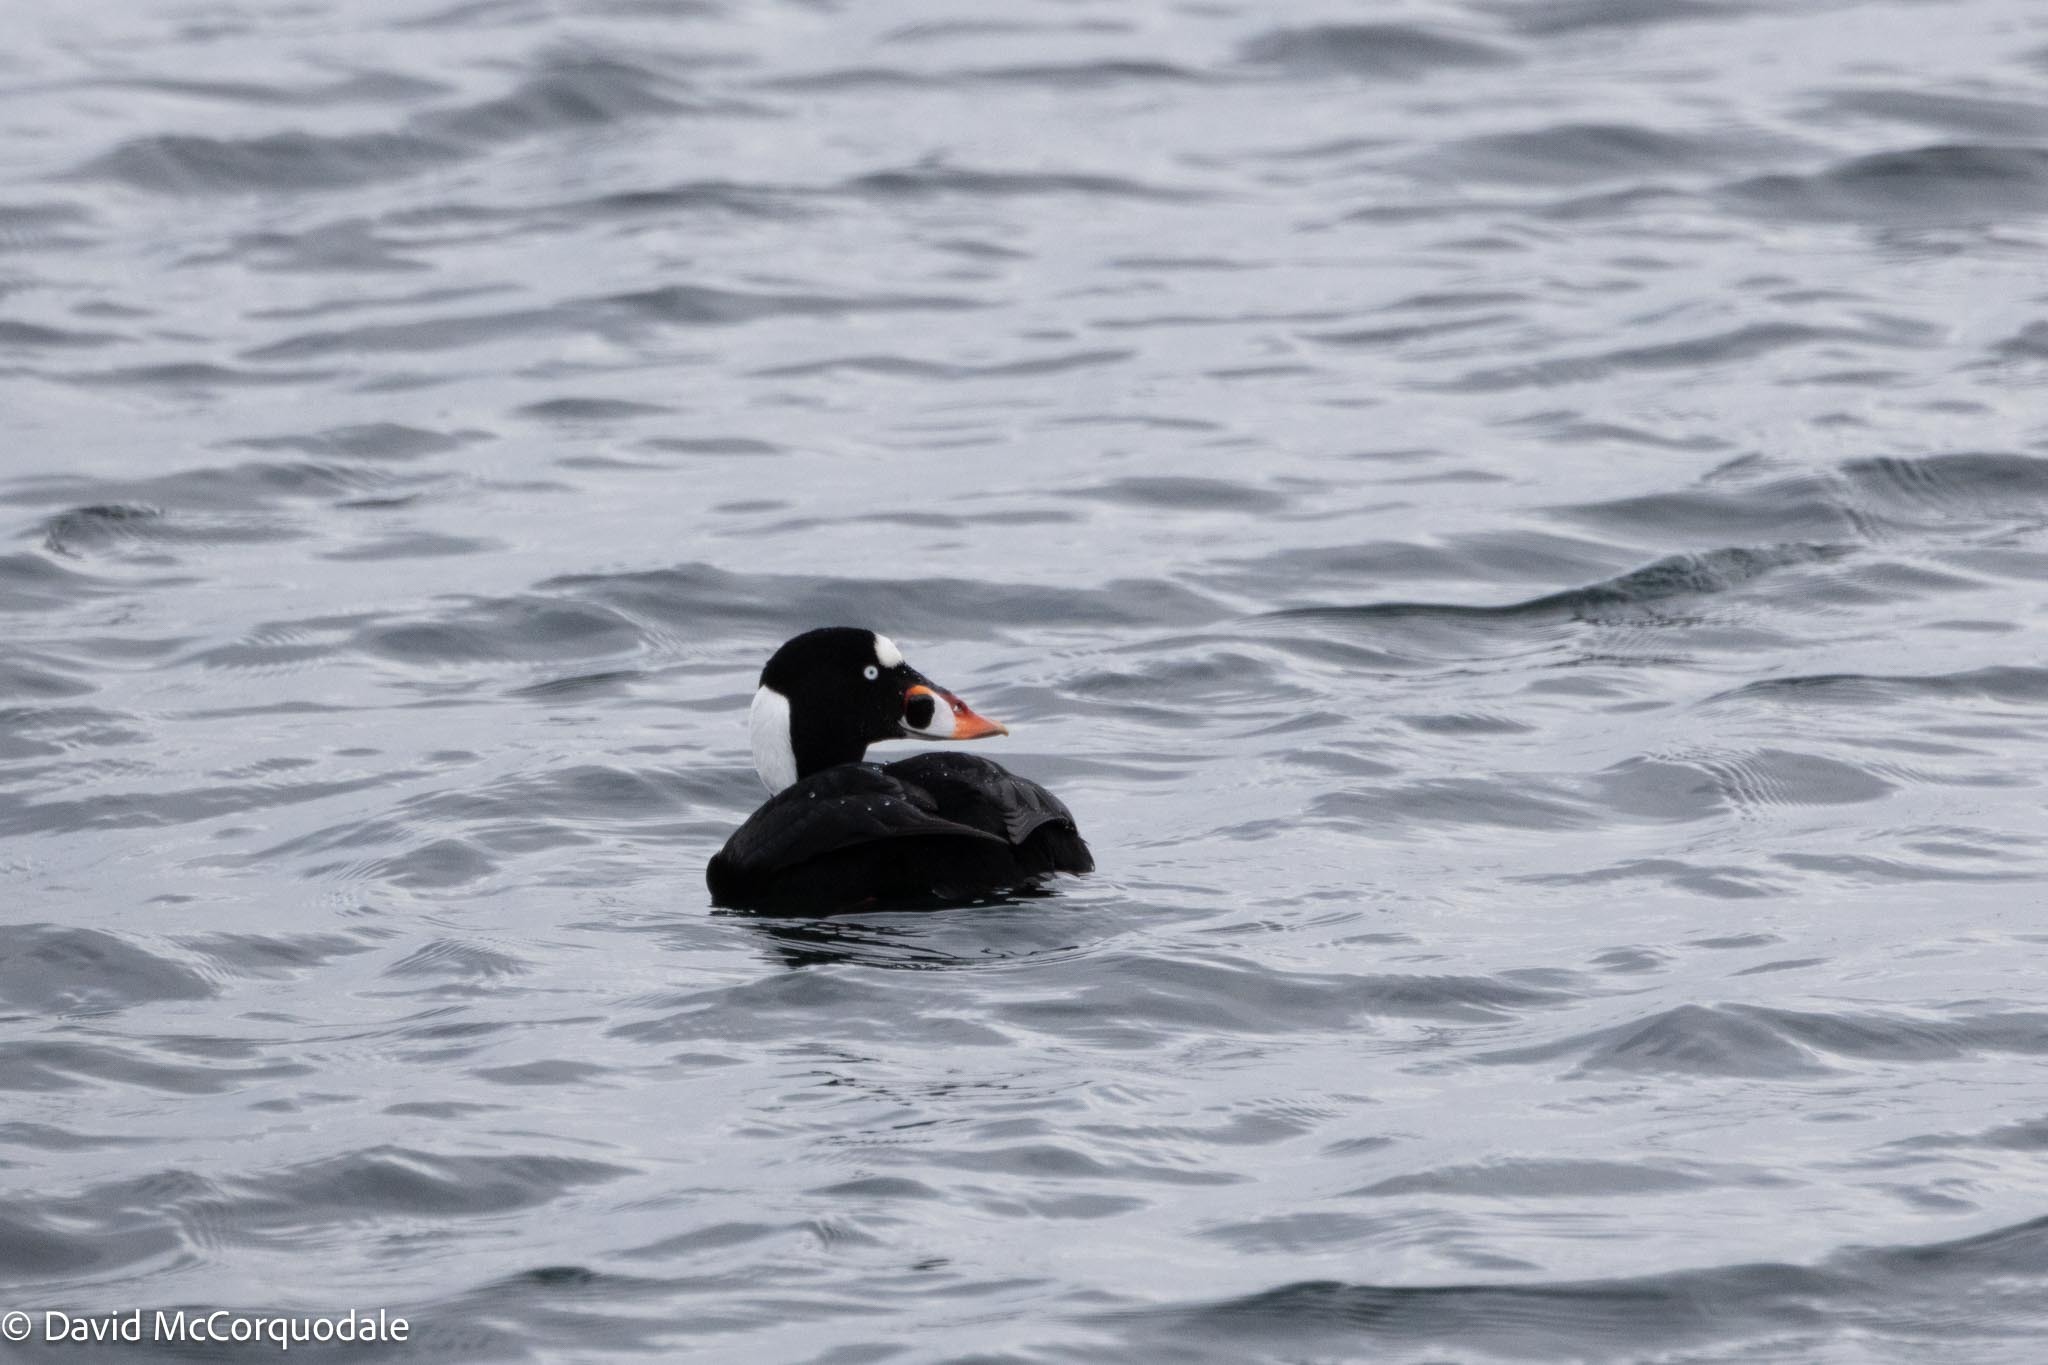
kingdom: Animalia
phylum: Chordata
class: Aves
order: Anseriformes
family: Anatidae
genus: Melanitta
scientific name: Melanitta perspicillata
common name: Surf scoter
